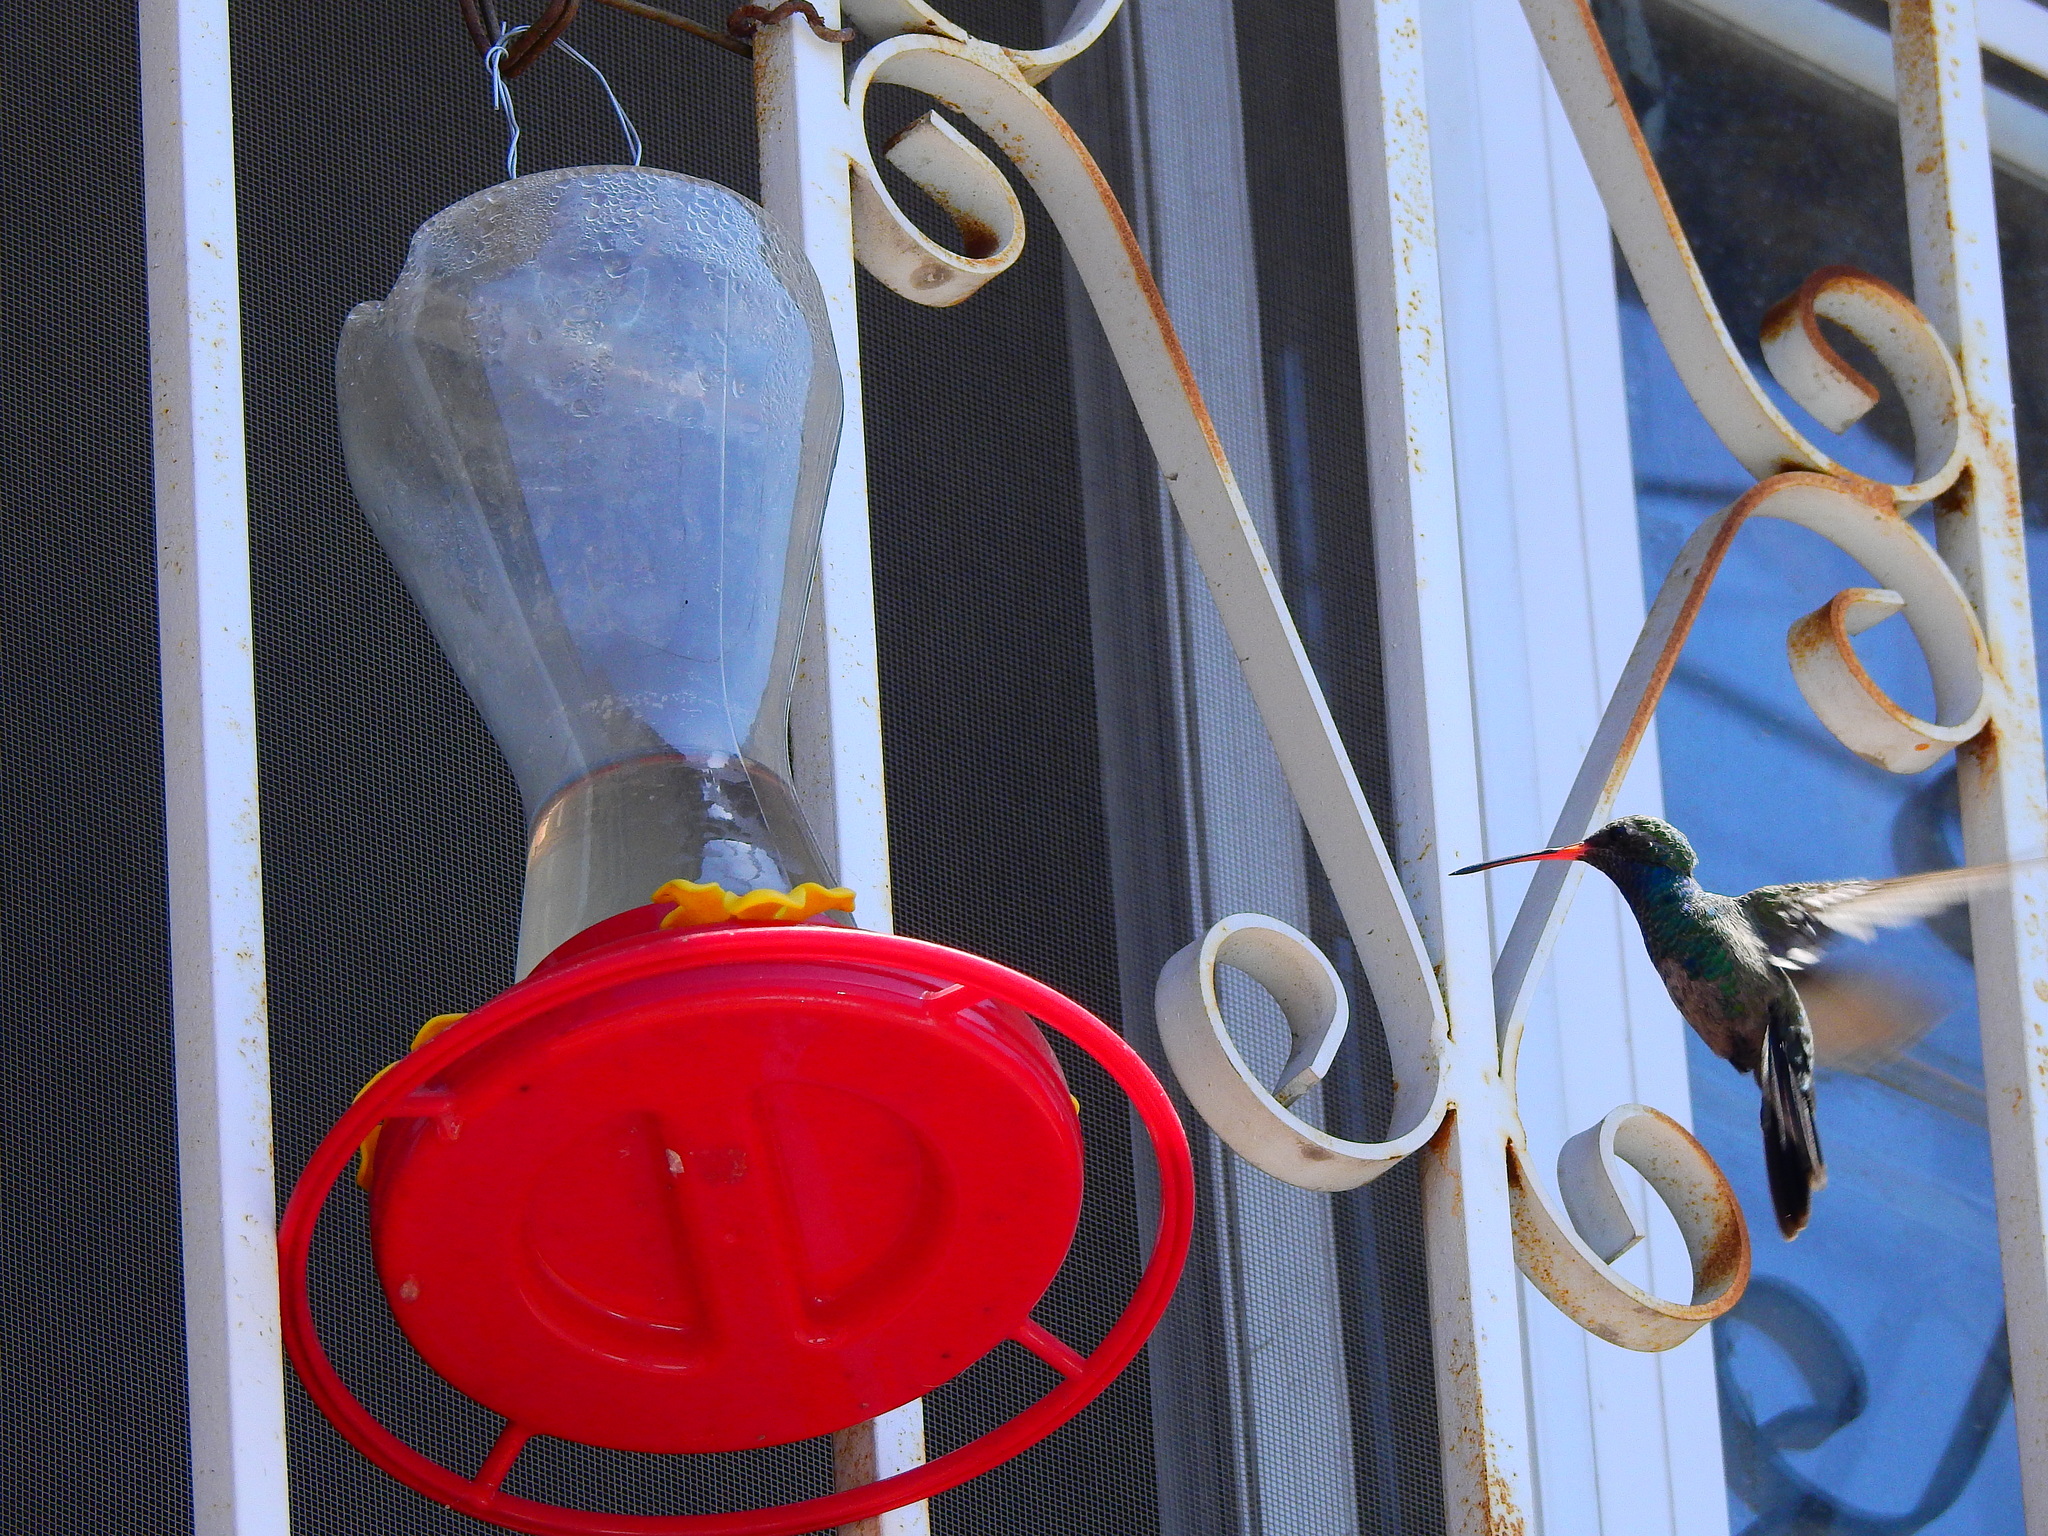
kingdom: Animalia
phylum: Chordata
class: Aves
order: Apodiformes
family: Trochilidae
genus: Cynanthus
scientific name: Cynanthus latirostris
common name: Broad-billed hummingbird
